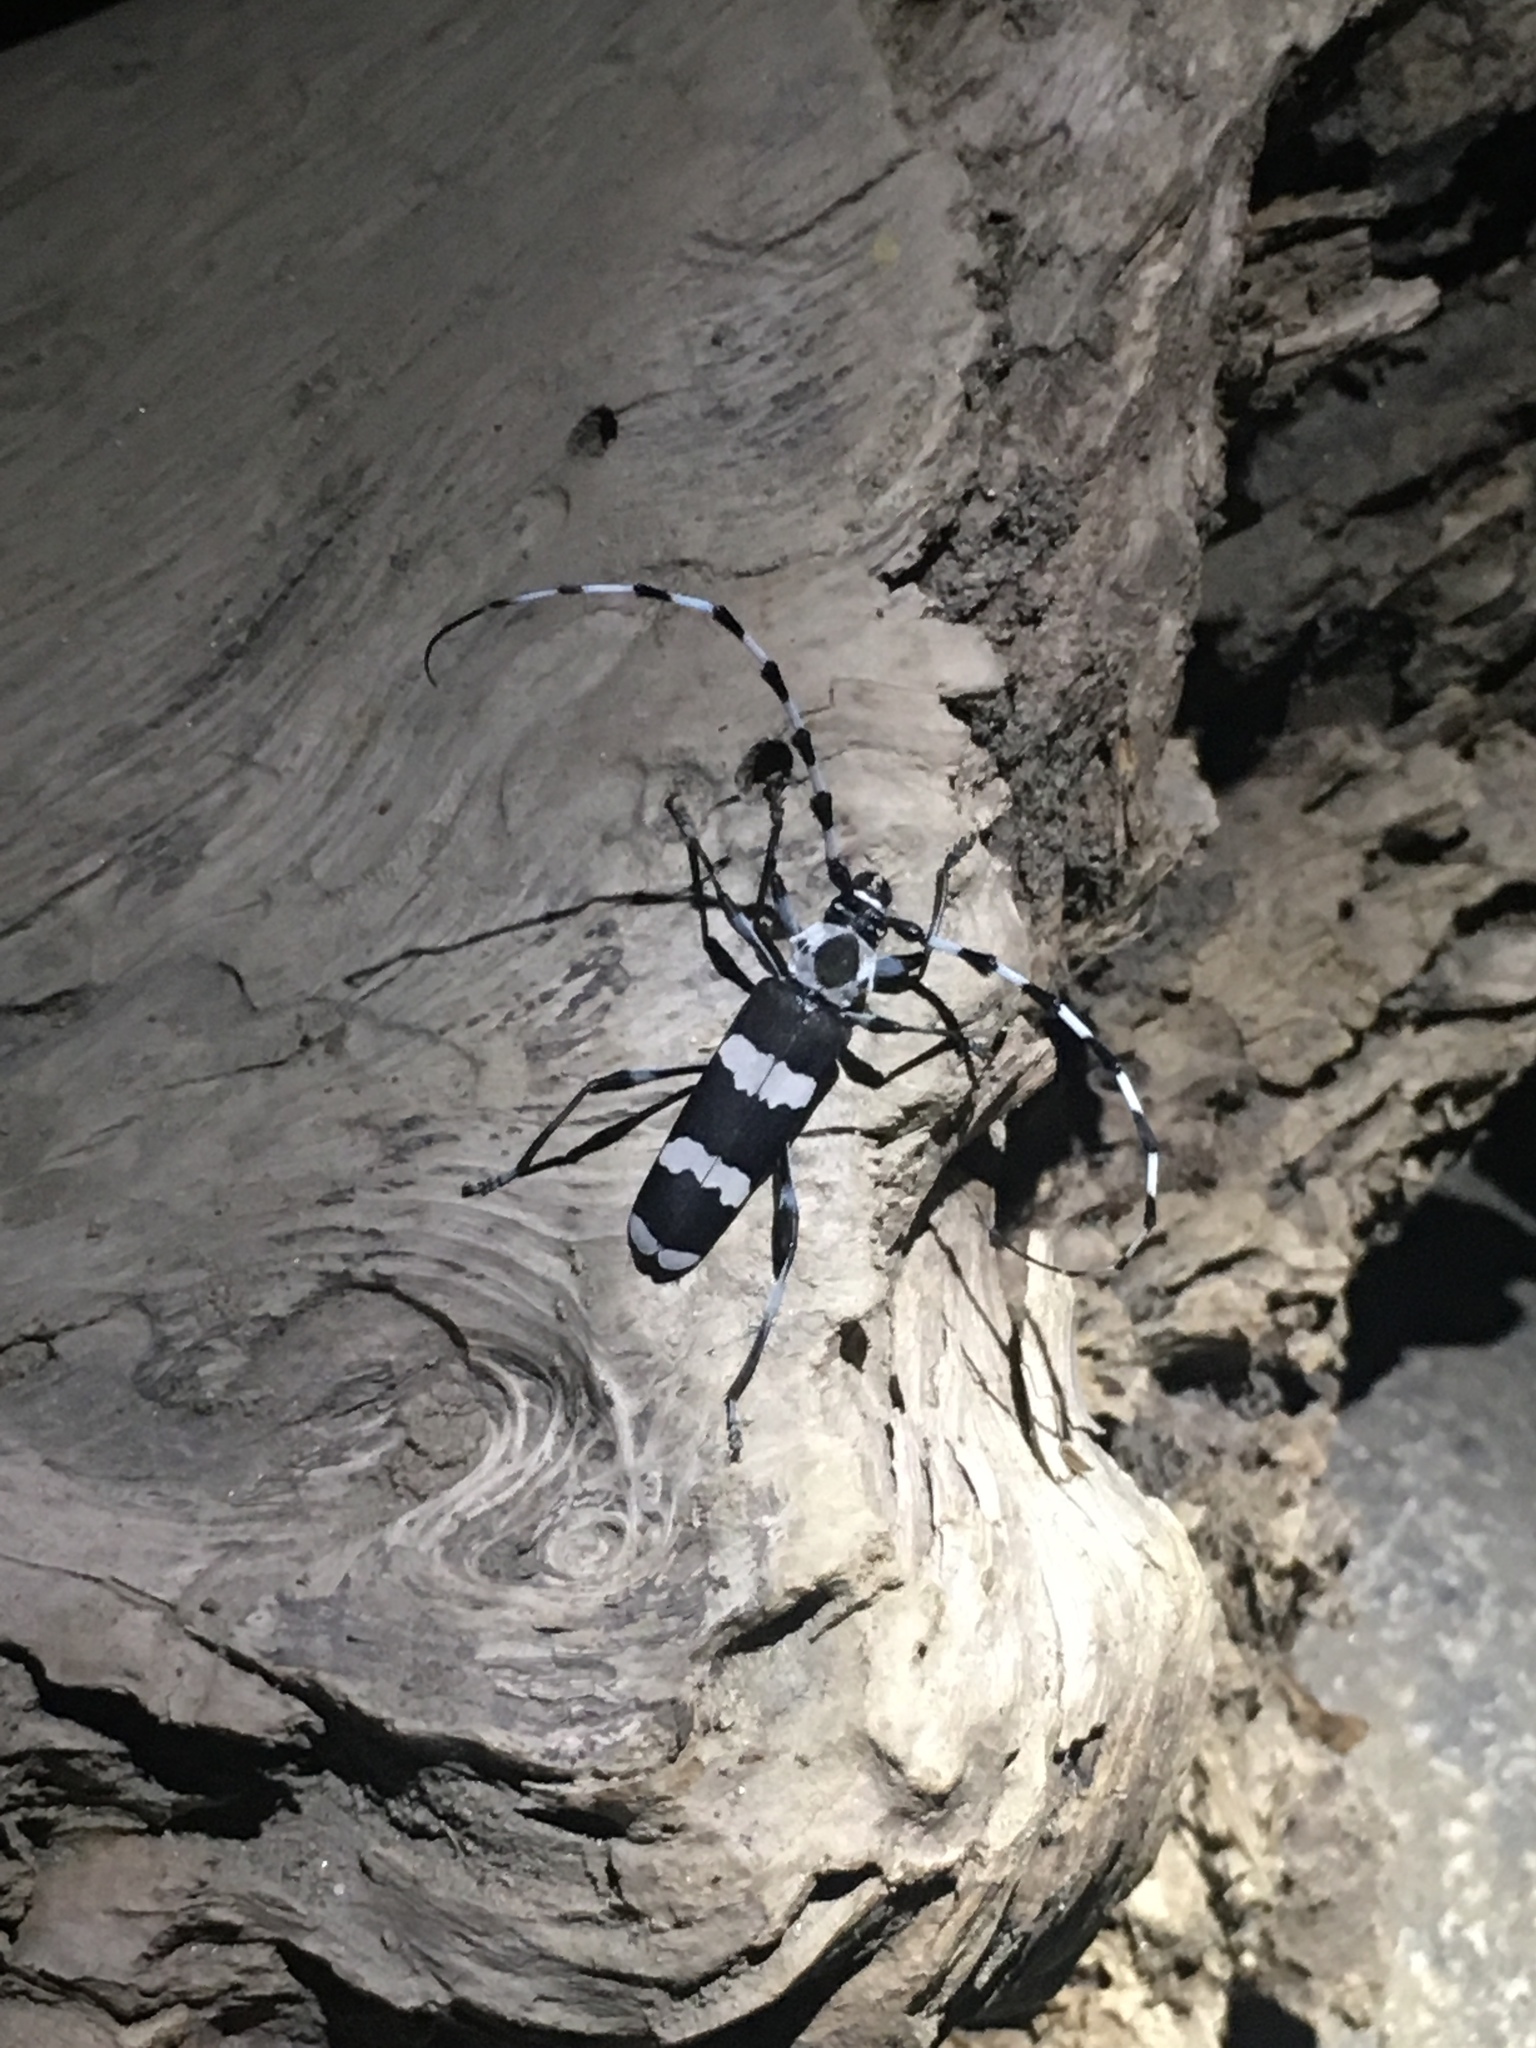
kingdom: Animalia
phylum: Arthropoda
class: Insecta
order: Coleoptera
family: Cerambycidae
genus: Rosalia
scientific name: Rosalia funebris
